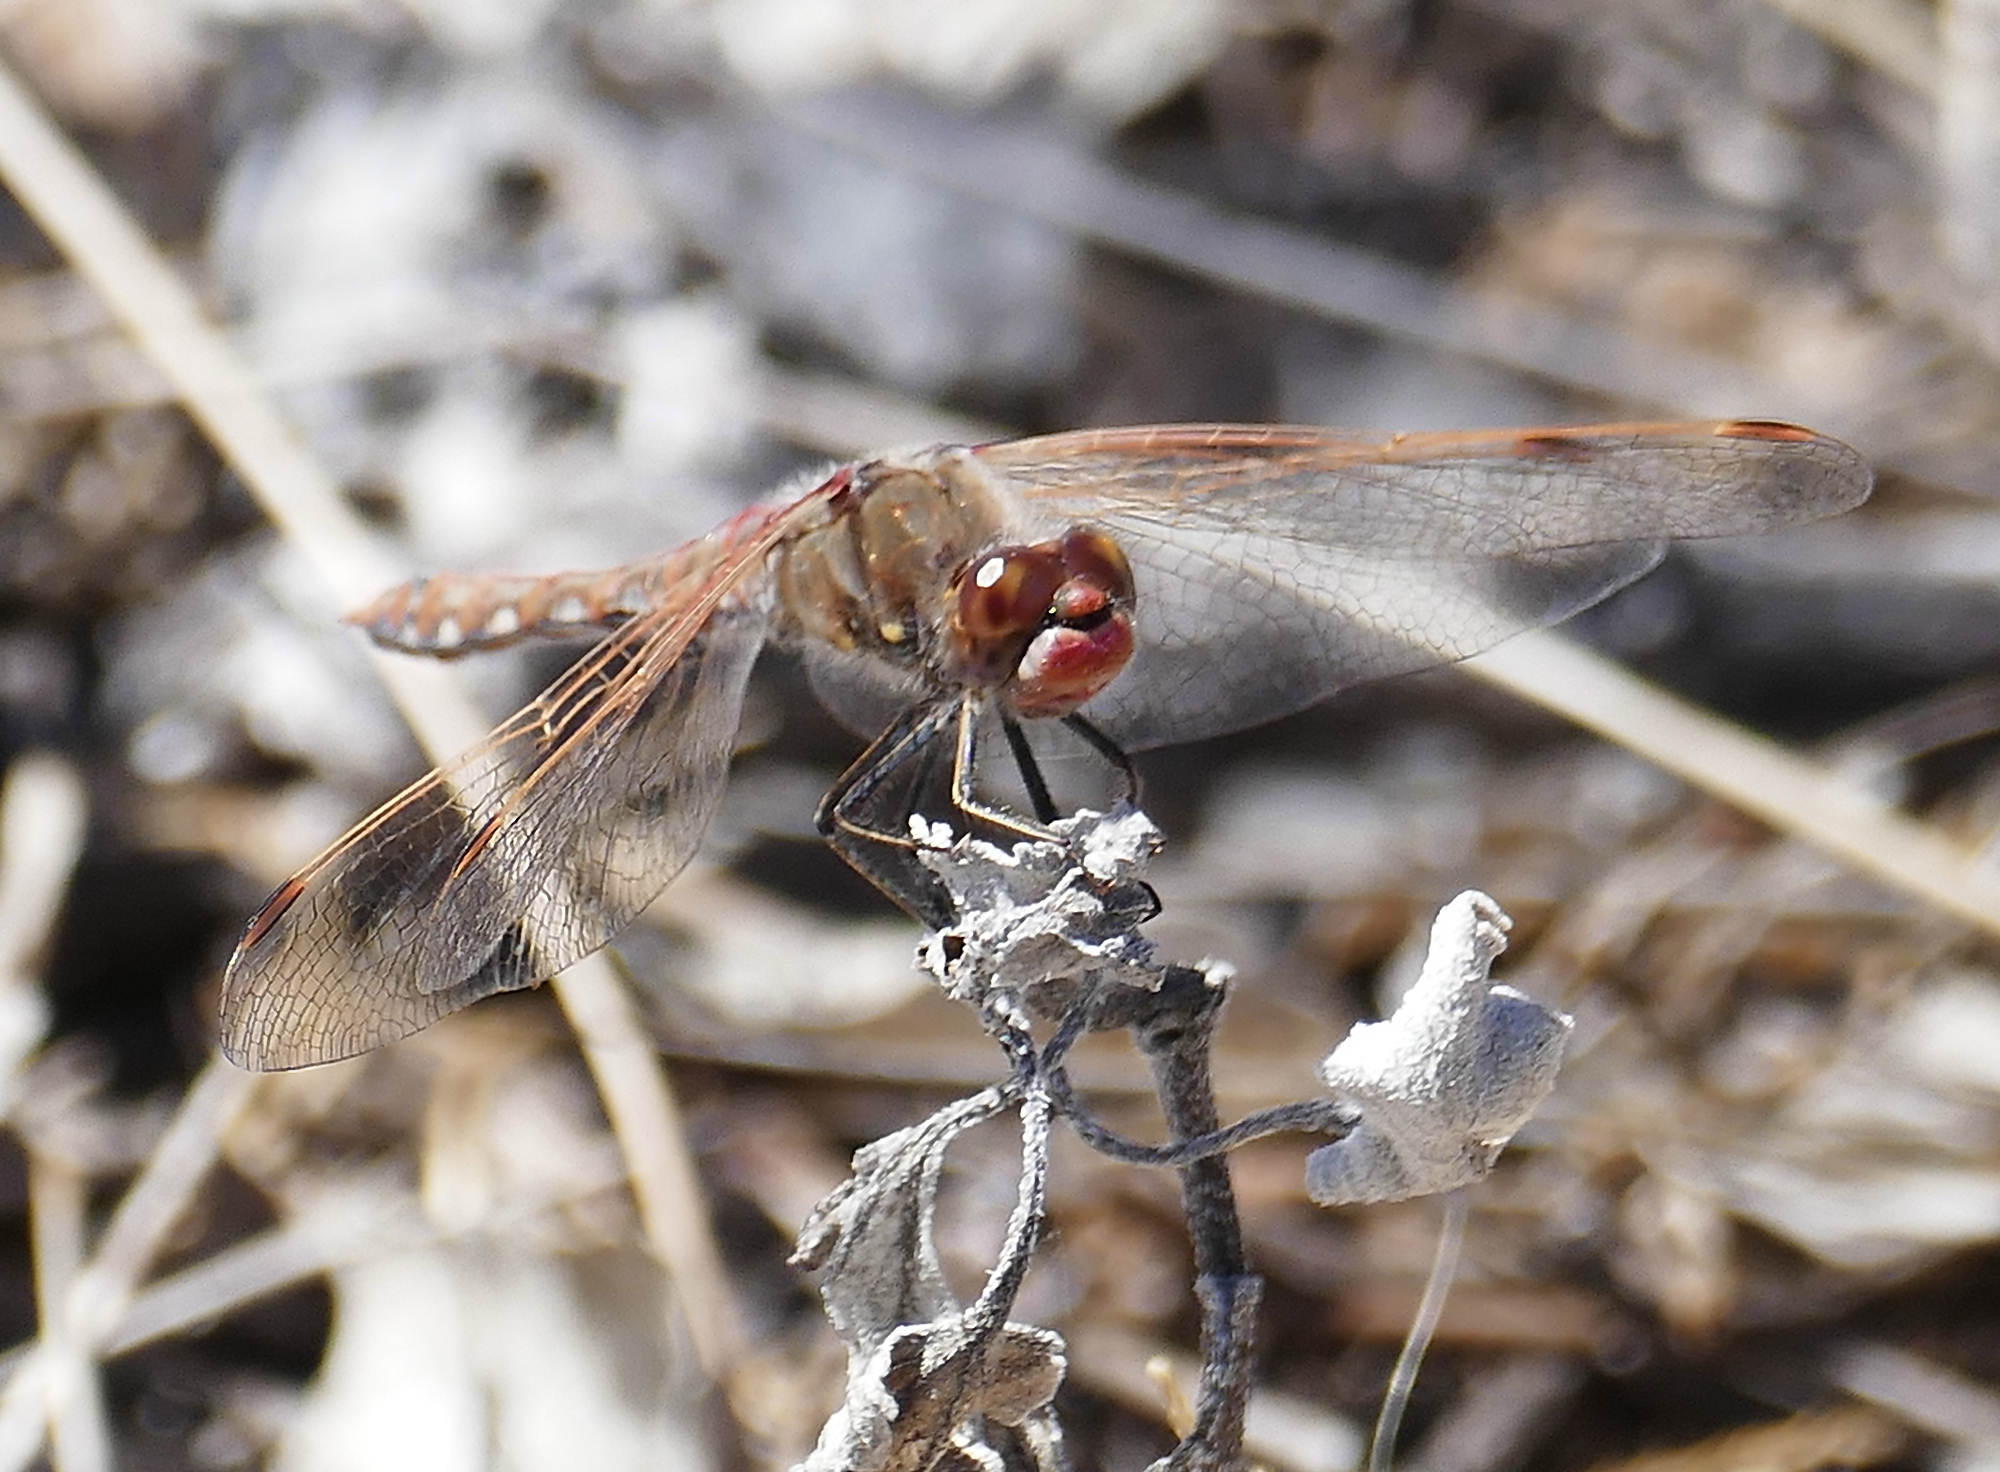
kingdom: Animalia
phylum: Arthropoda
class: Insecta
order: Odonata
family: Libellulidae
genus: Sympetrum
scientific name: Sympetrum corruptum
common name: Variegated meadowhawk
